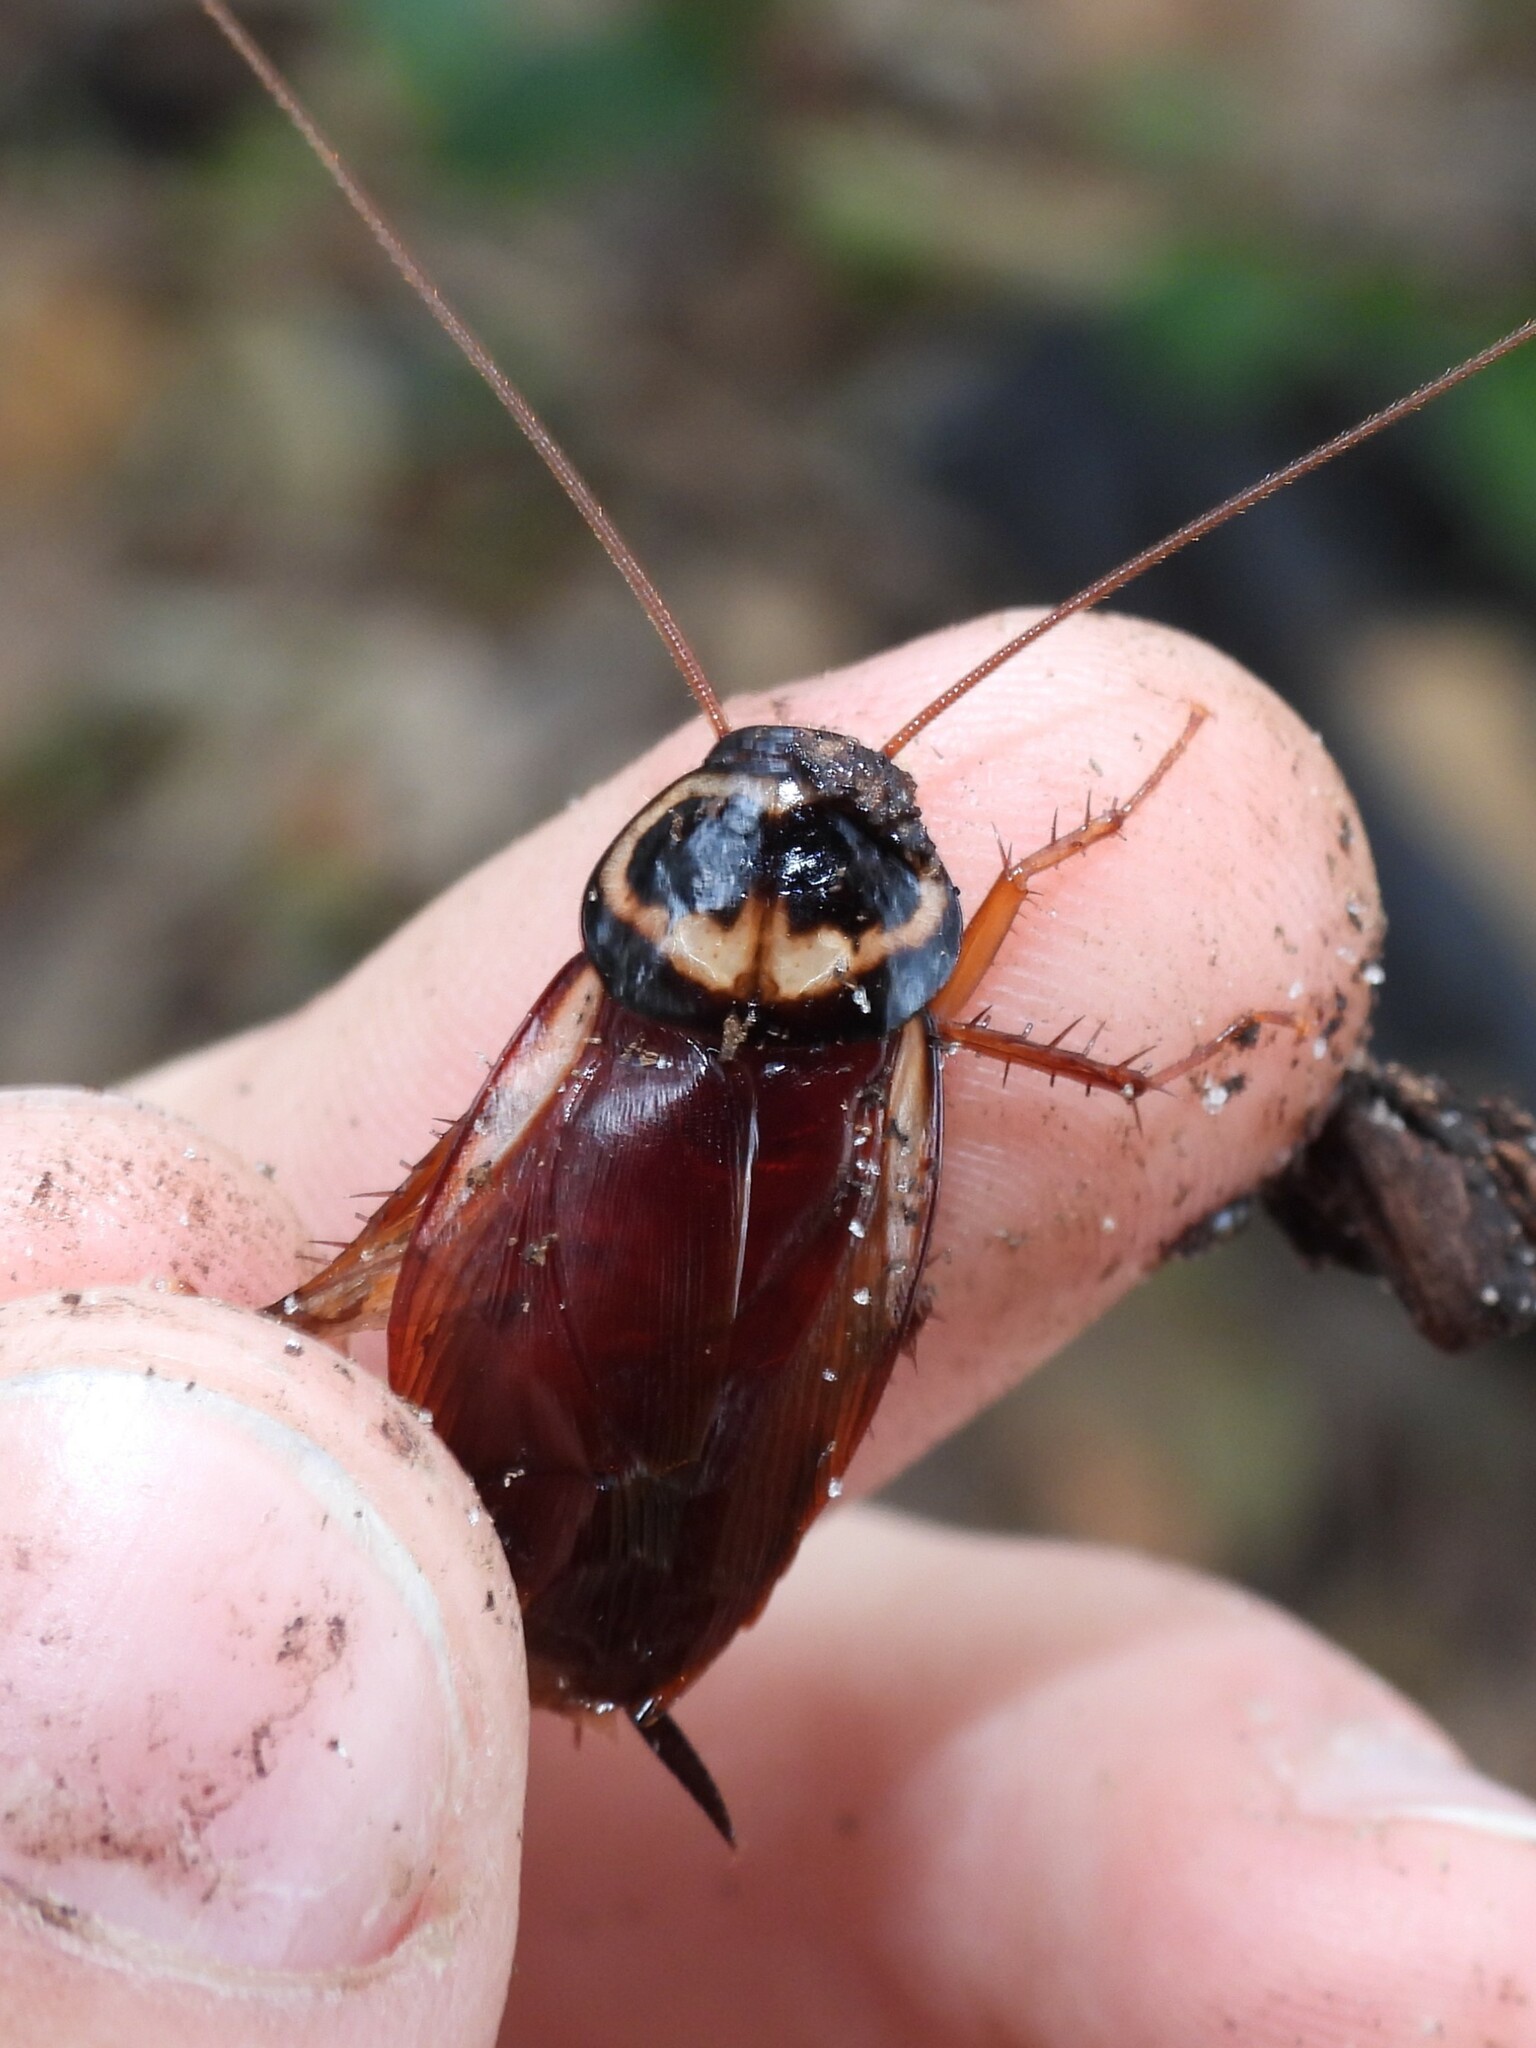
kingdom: Animalia
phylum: Arthropoda
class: Insecta
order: Blattodea
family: Blattidae
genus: Periplaneta
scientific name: Periplaneta australasiae
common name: Australian cockroach
